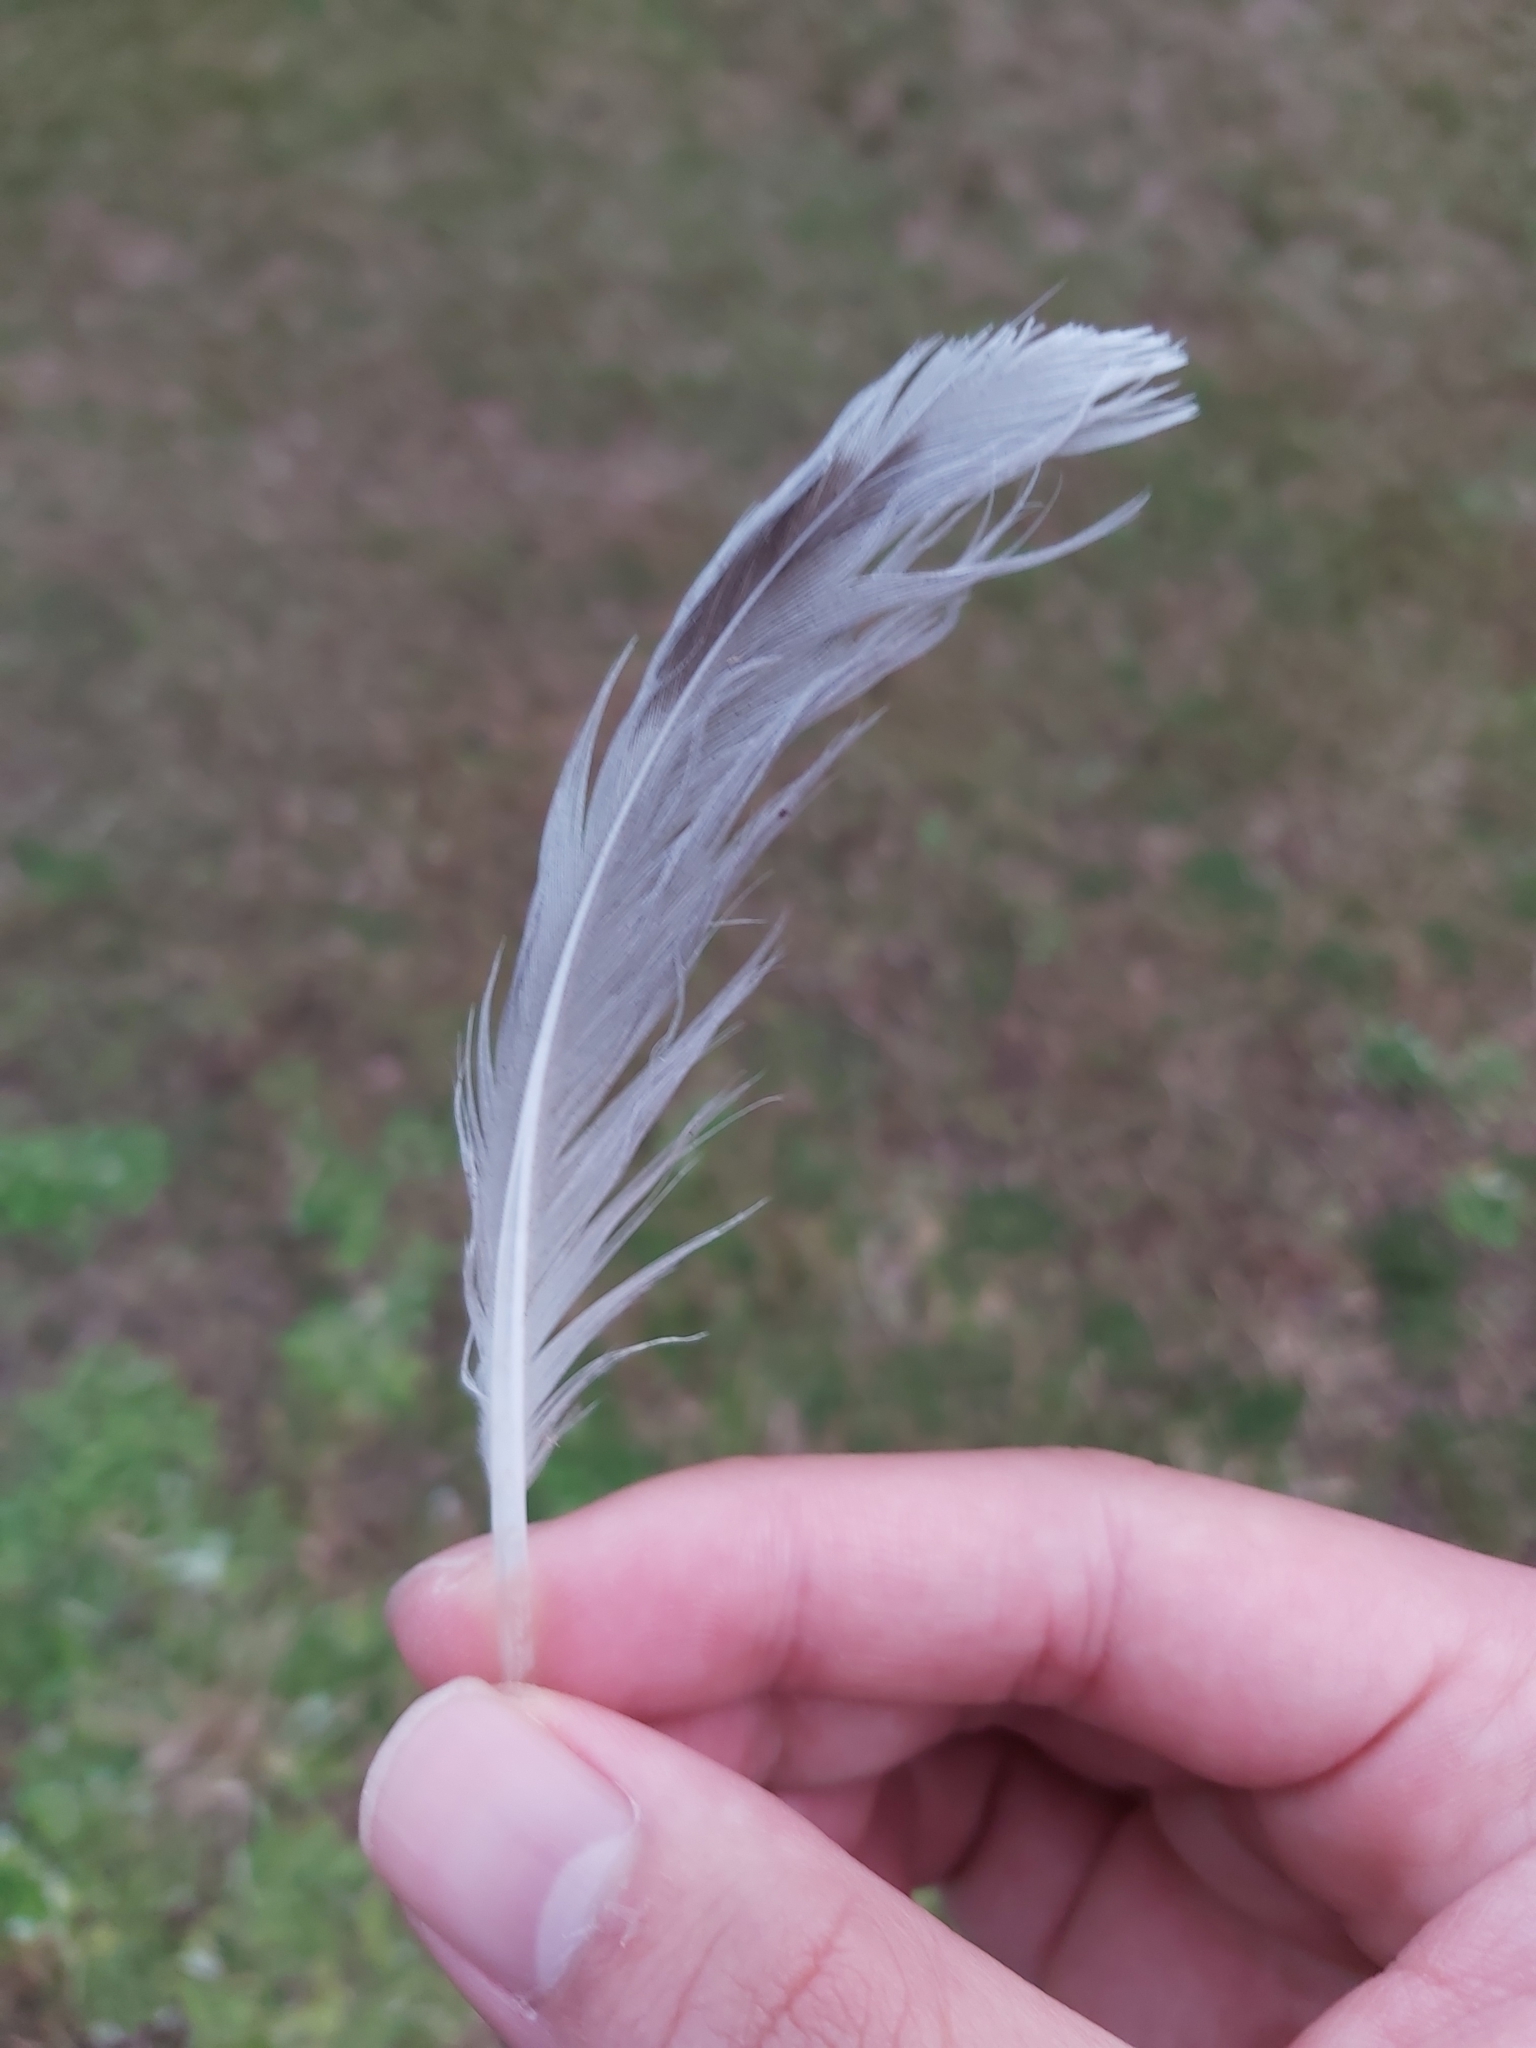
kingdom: Animalia
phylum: Chordata
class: Aves
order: Charadriiformes
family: Laridae
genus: Chroicocephalus
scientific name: Chroicocephalus novaehollandiae
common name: Silver gull
